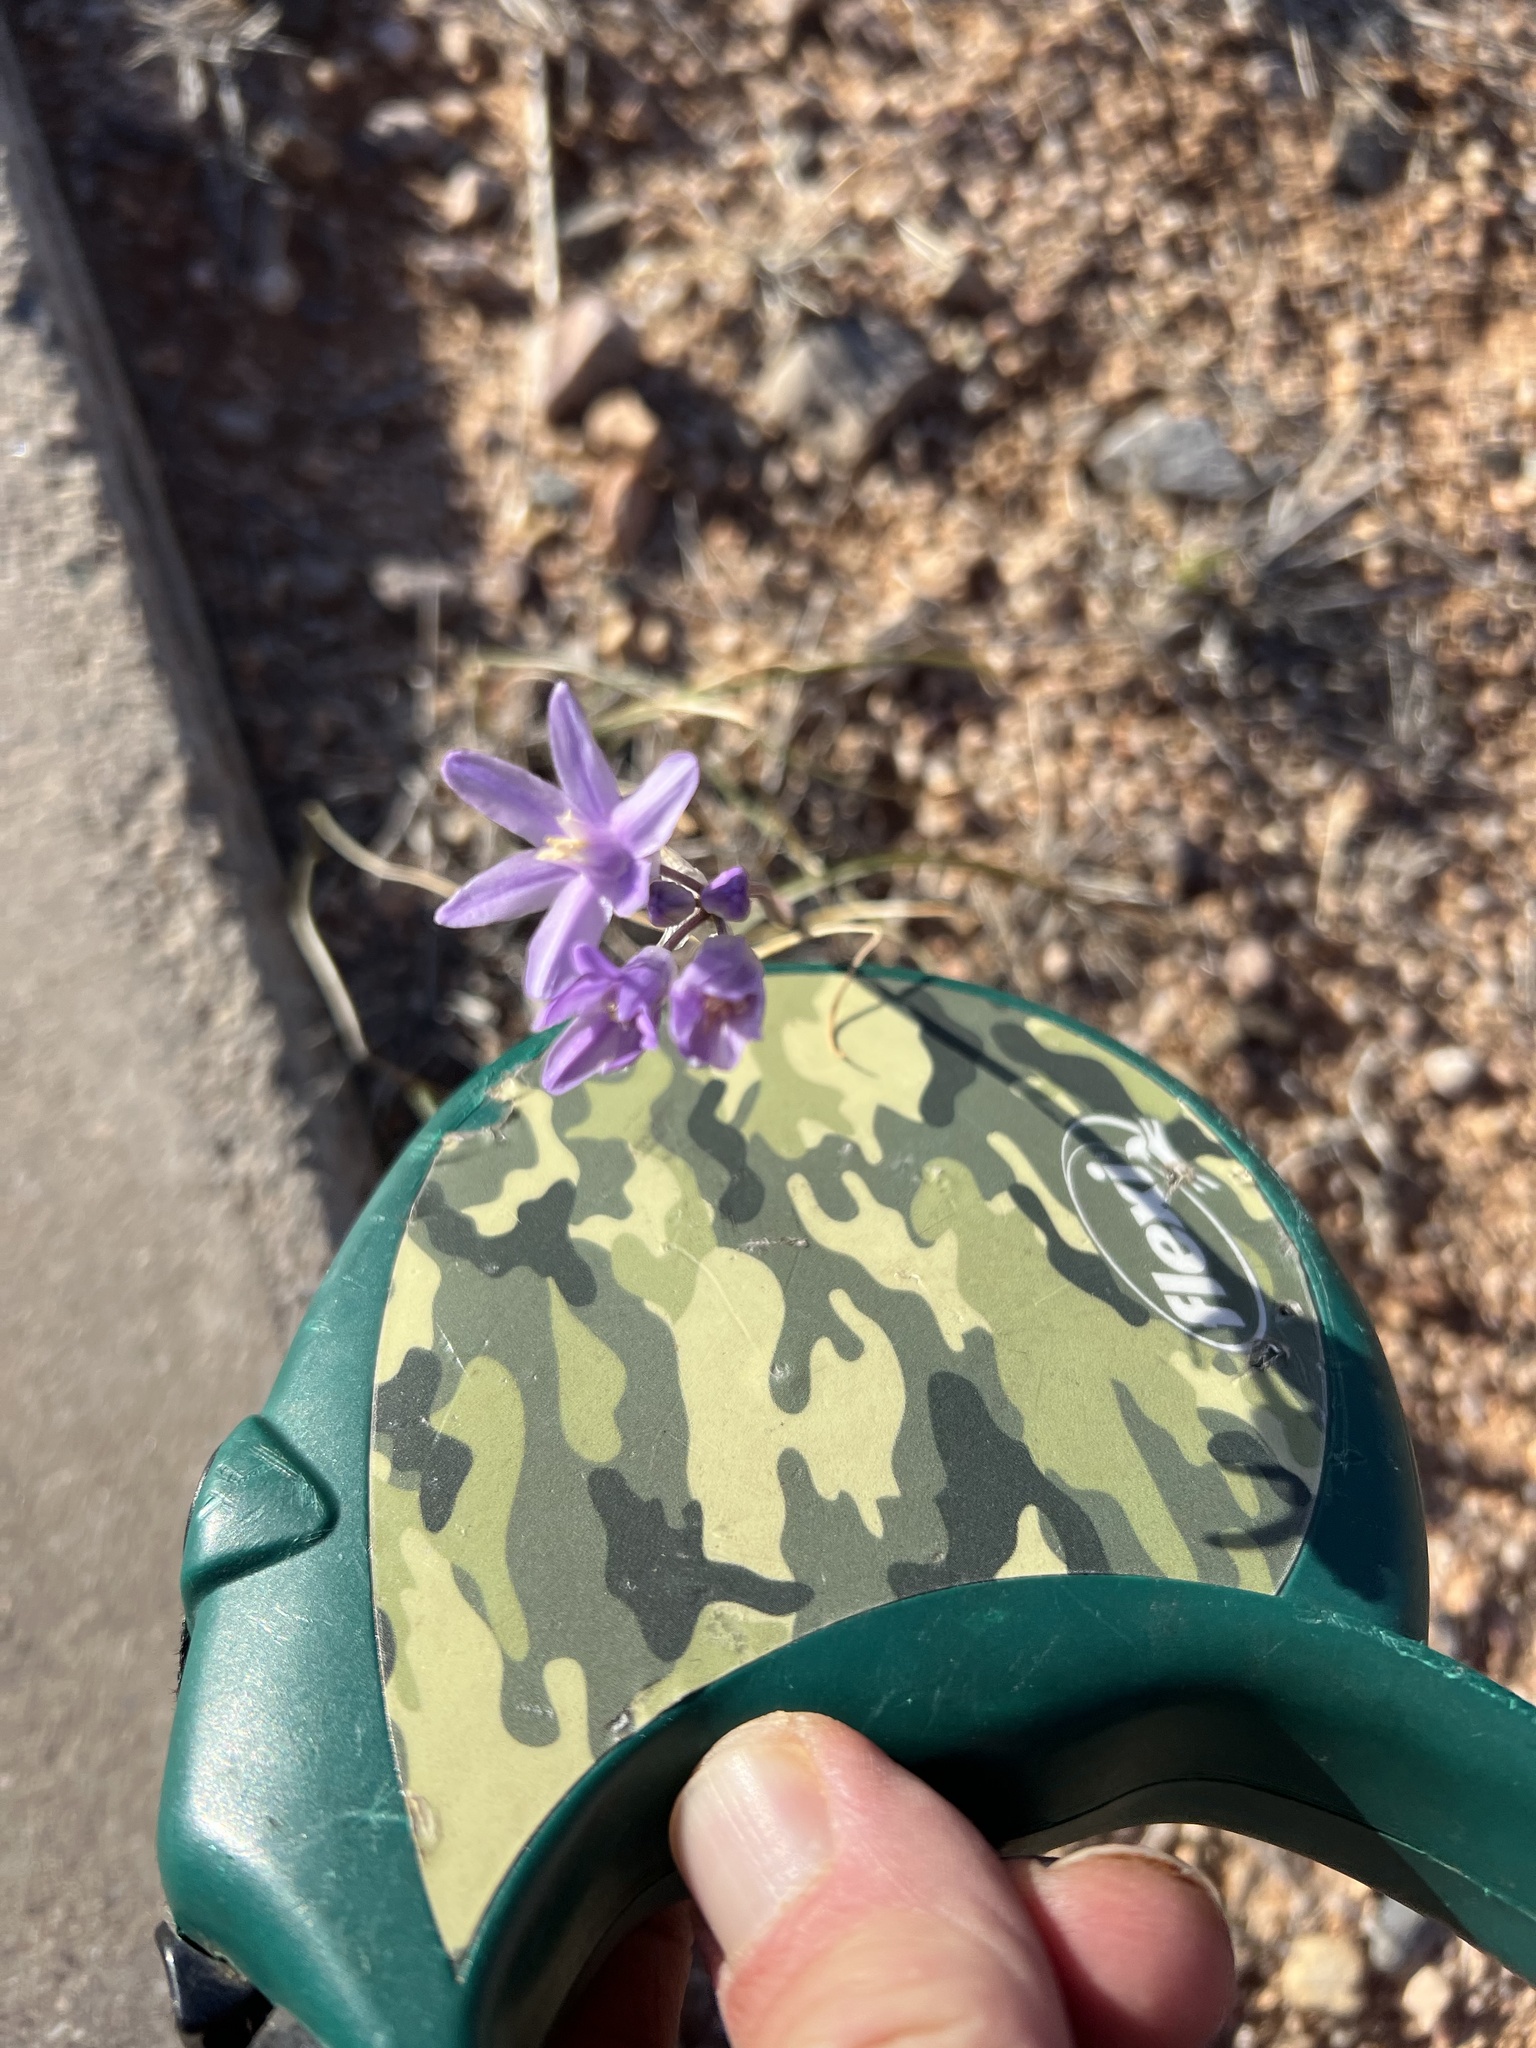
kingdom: Plantae
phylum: Tracheophyta
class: Liliopsida
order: Asparagales
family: Asparagaceae
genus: Dipterostemon
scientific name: Dipterostemon capitatus
